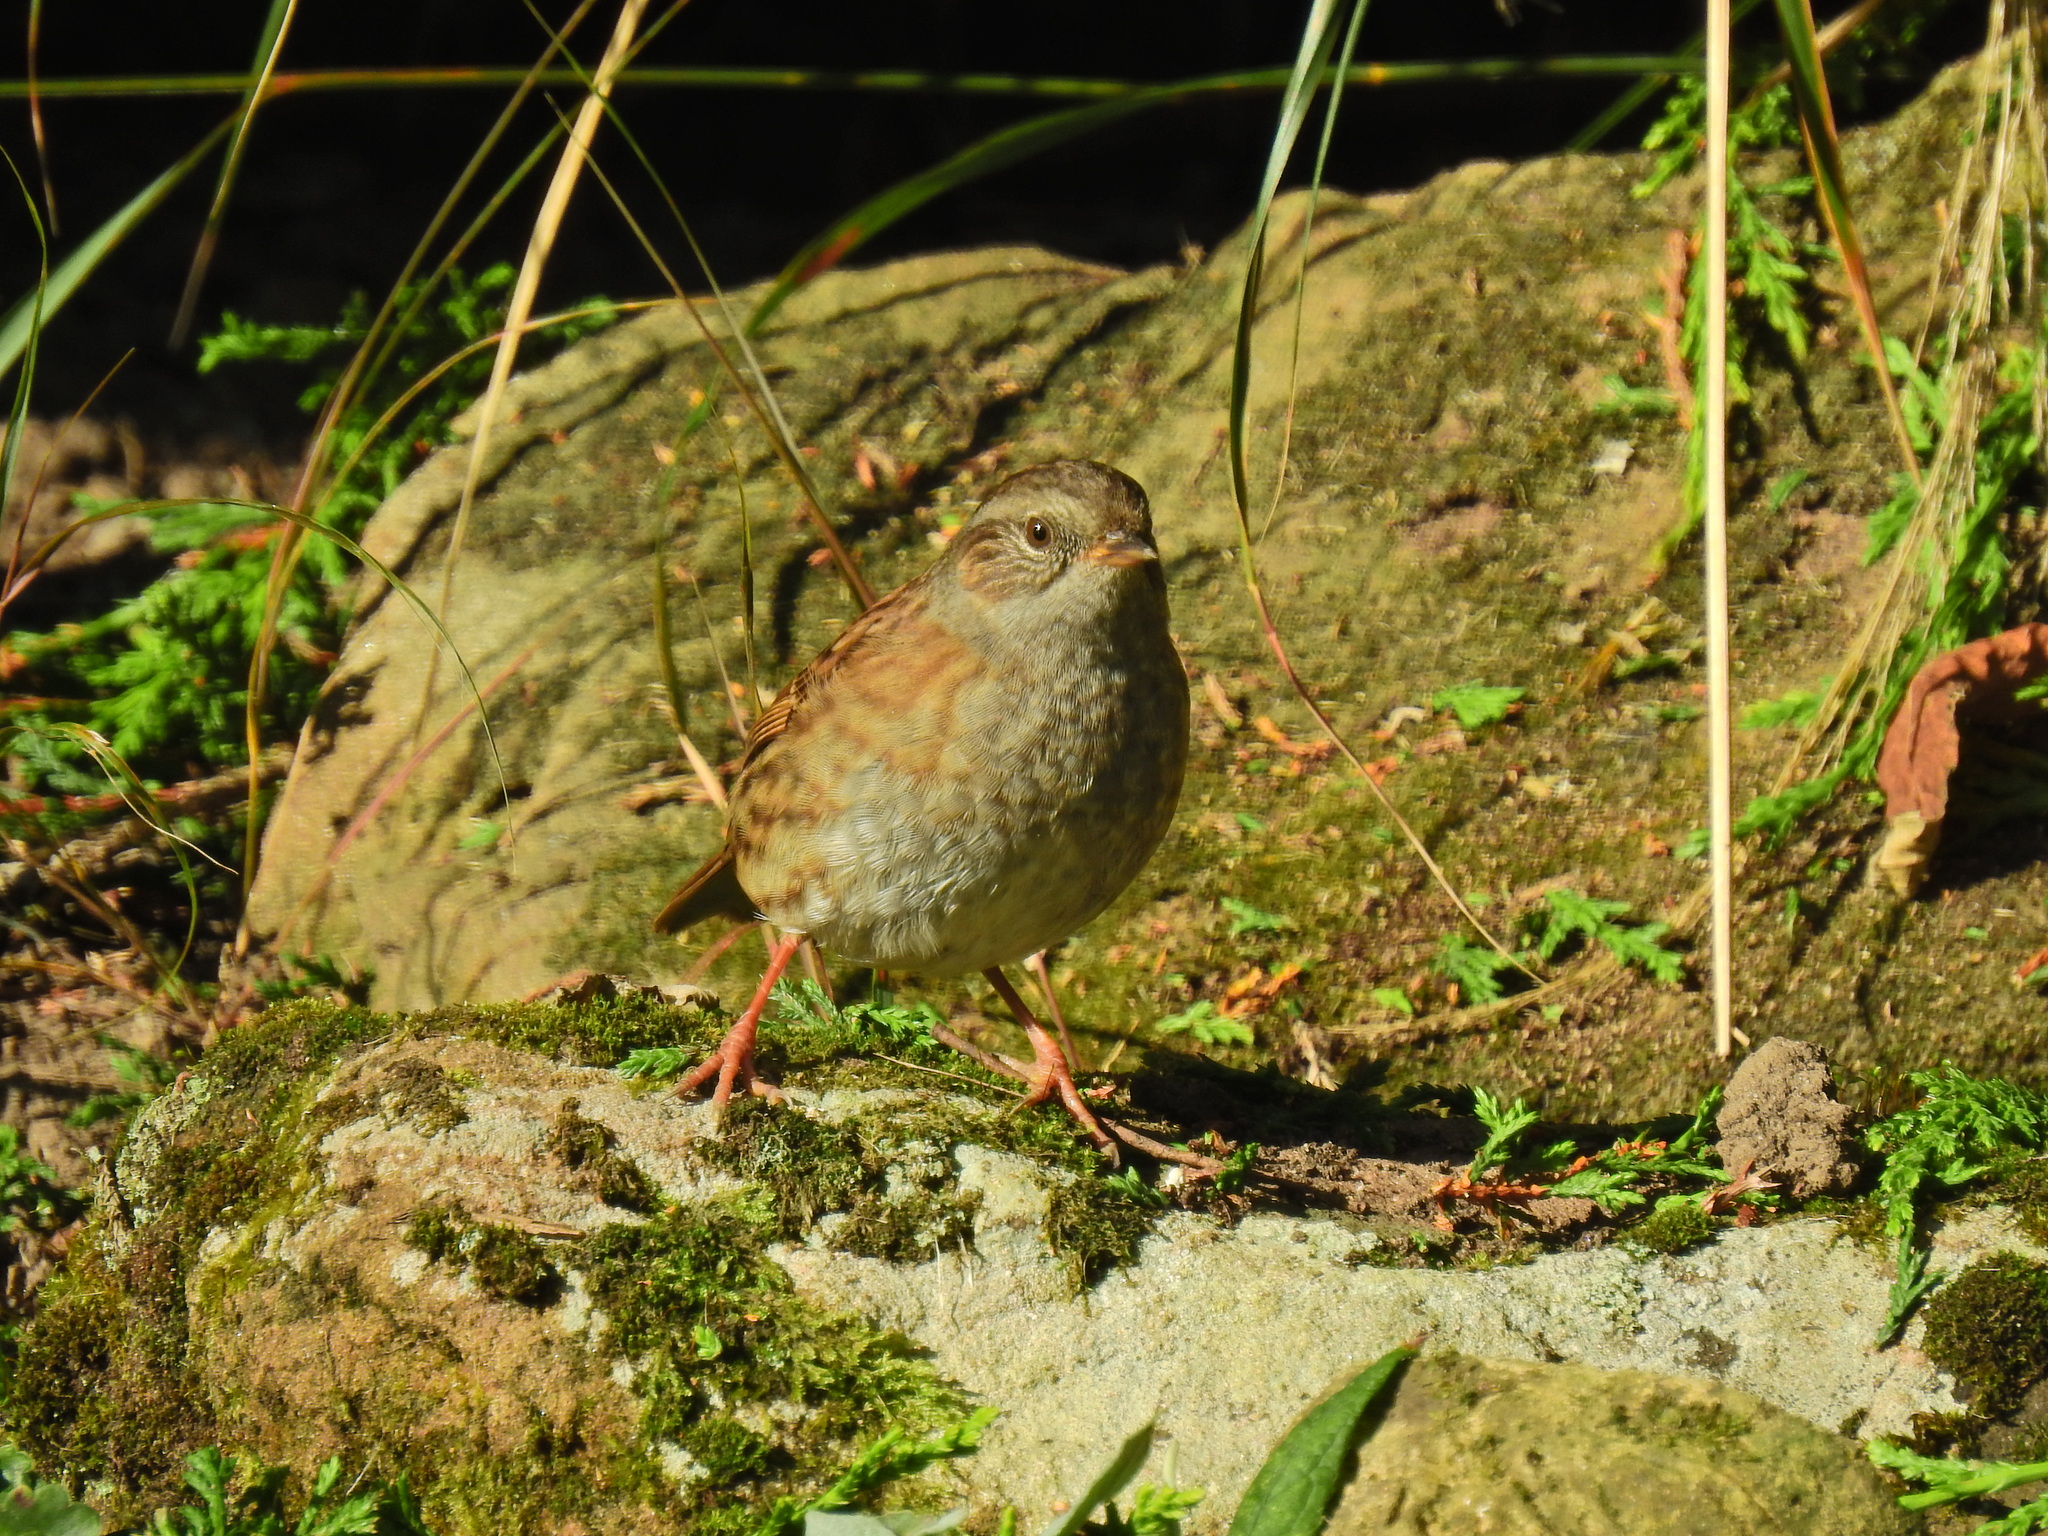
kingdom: Animalia
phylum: Chordata
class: Aves
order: Passeriformes
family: Prunellidae
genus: Prunella
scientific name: Prunella modularis
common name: Dunnock
